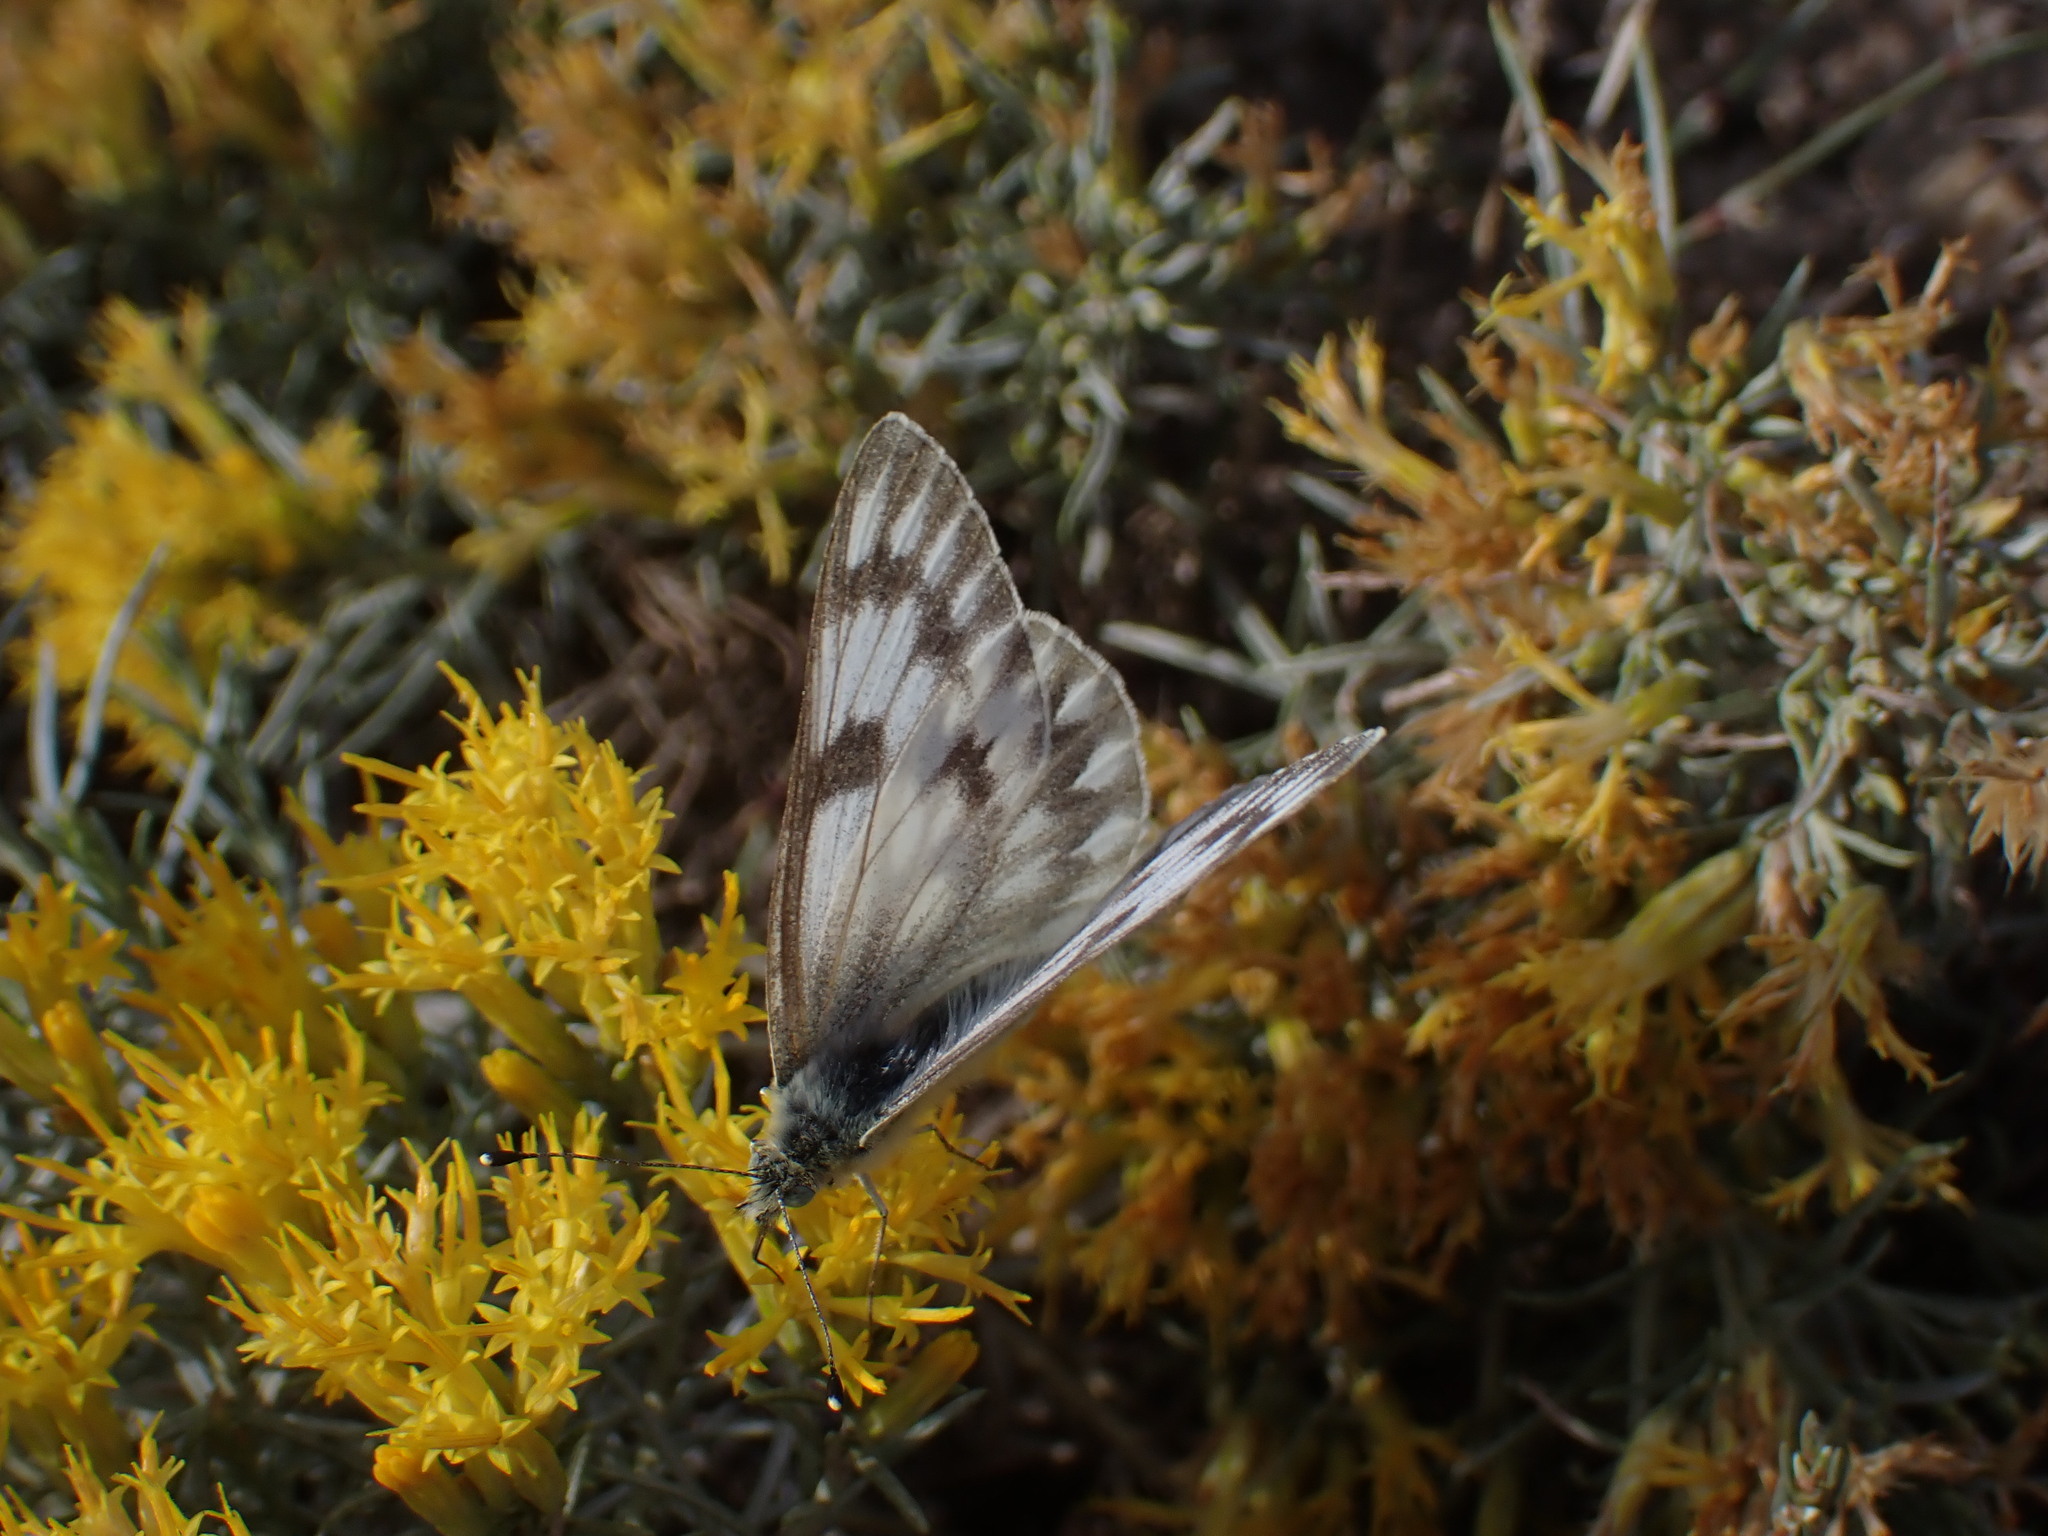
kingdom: Animalia
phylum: Arthropoda
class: Insecta
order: Lepidoptera
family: Pieridae
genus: Pontia
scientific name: Pontia occidentalis
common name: Western white
